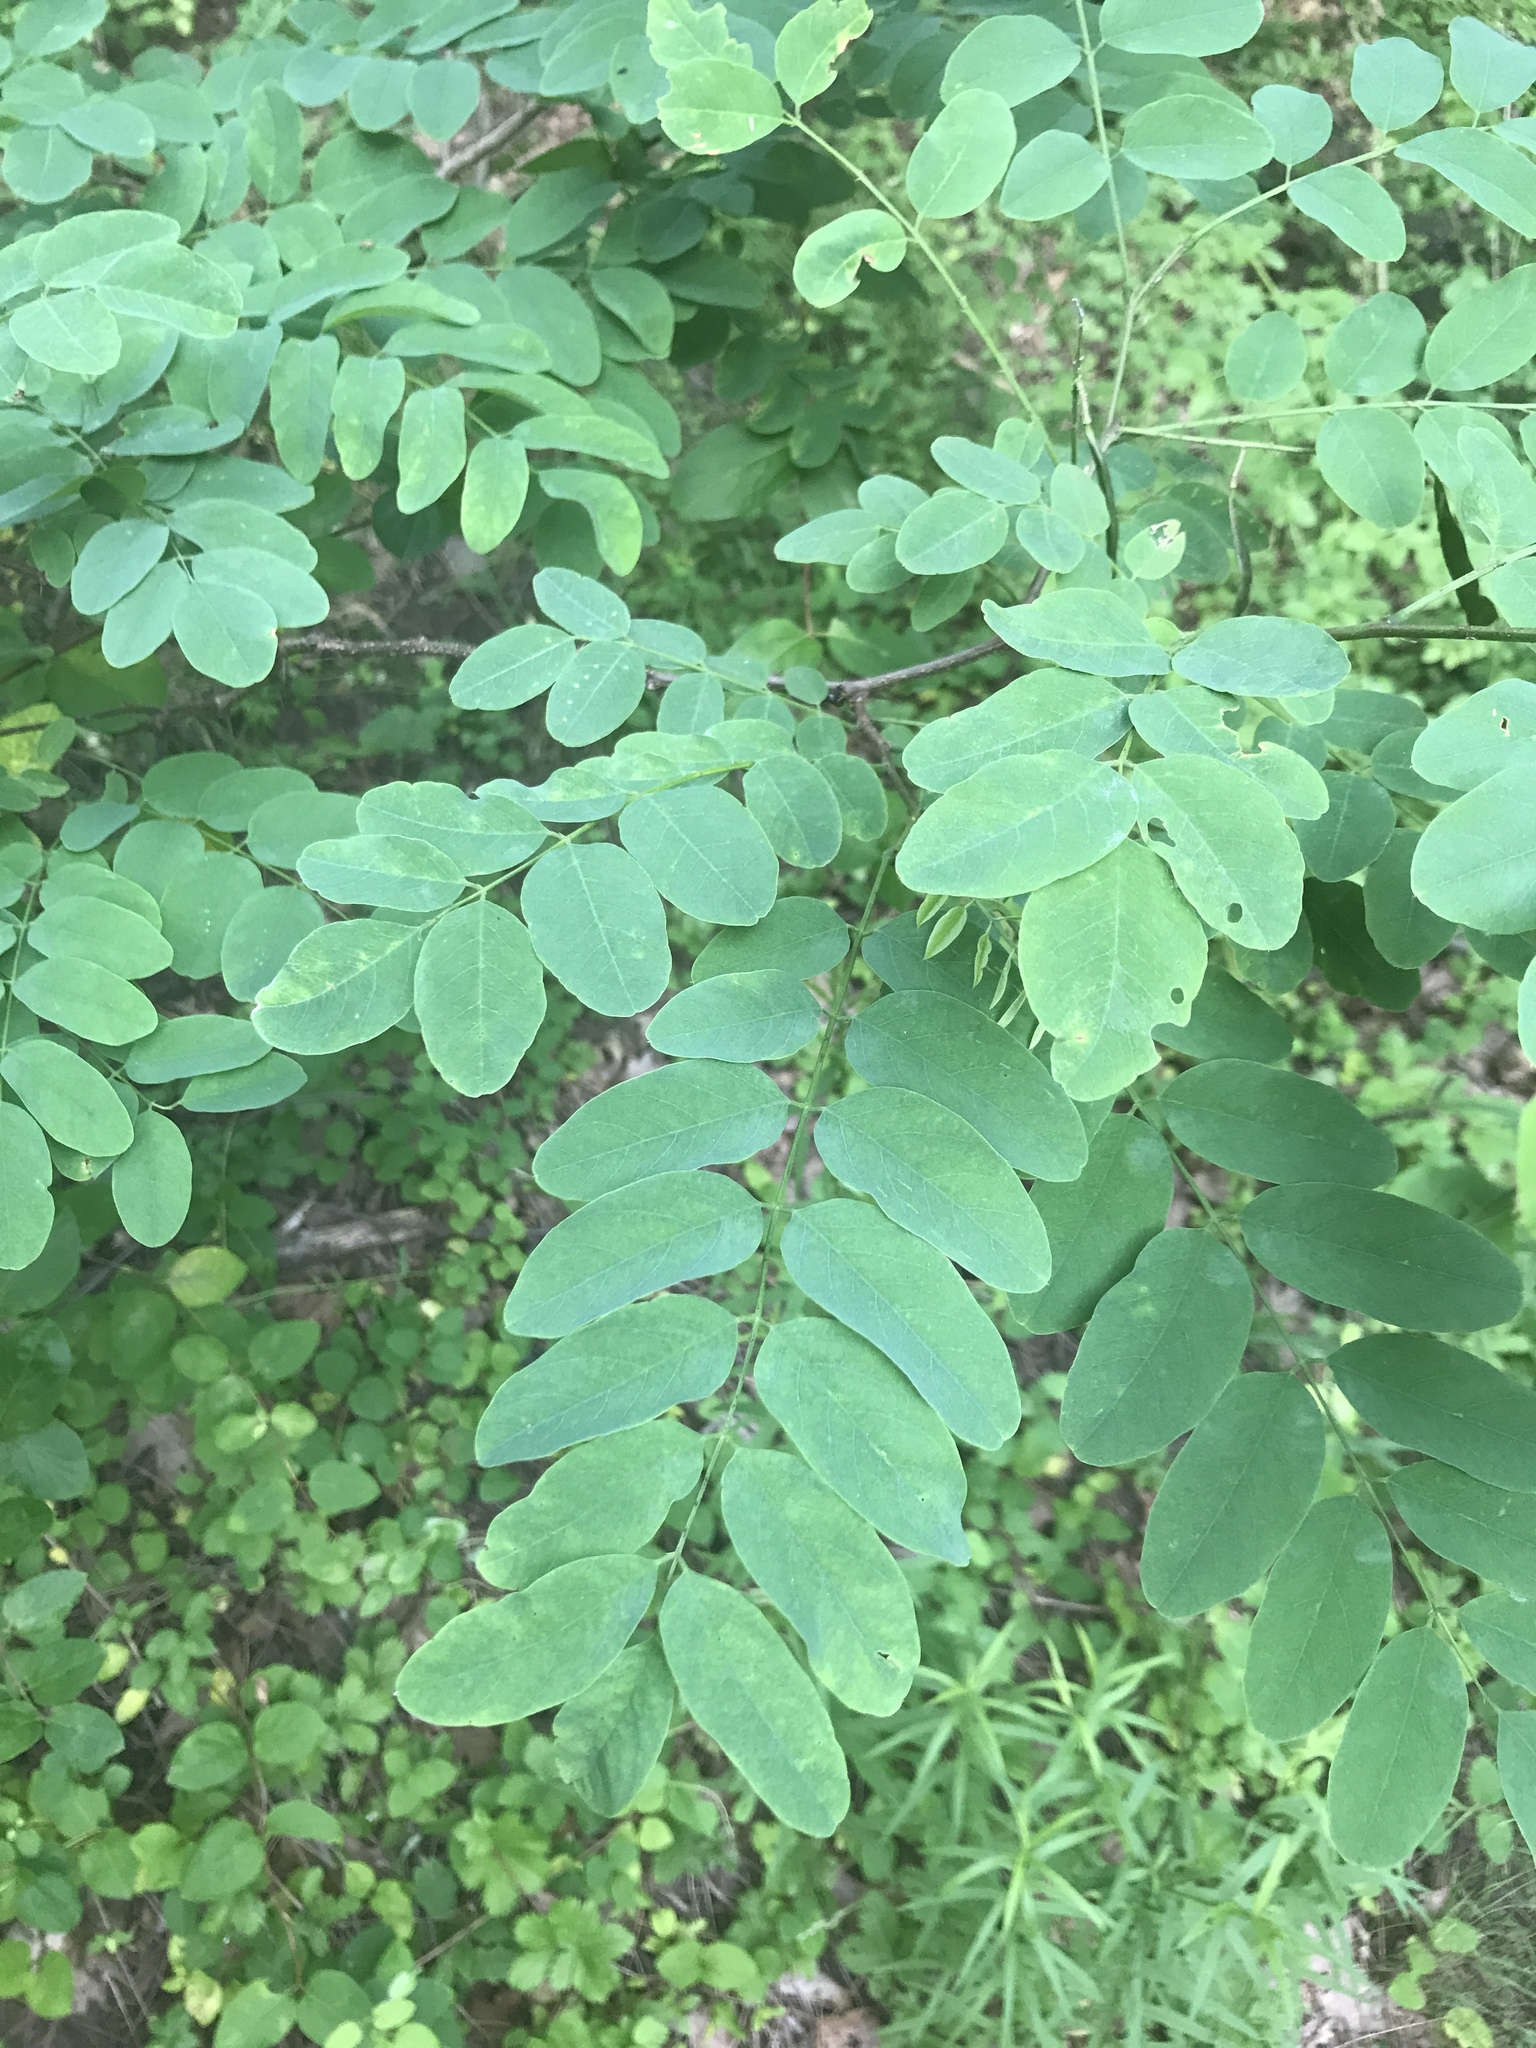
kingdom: Plantae
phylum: Tracheophyta
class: Magnoliopsida
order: Fabales
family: Fabaceae
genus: Robinia
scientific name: Robinia pseudoacacia
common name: Black locust
